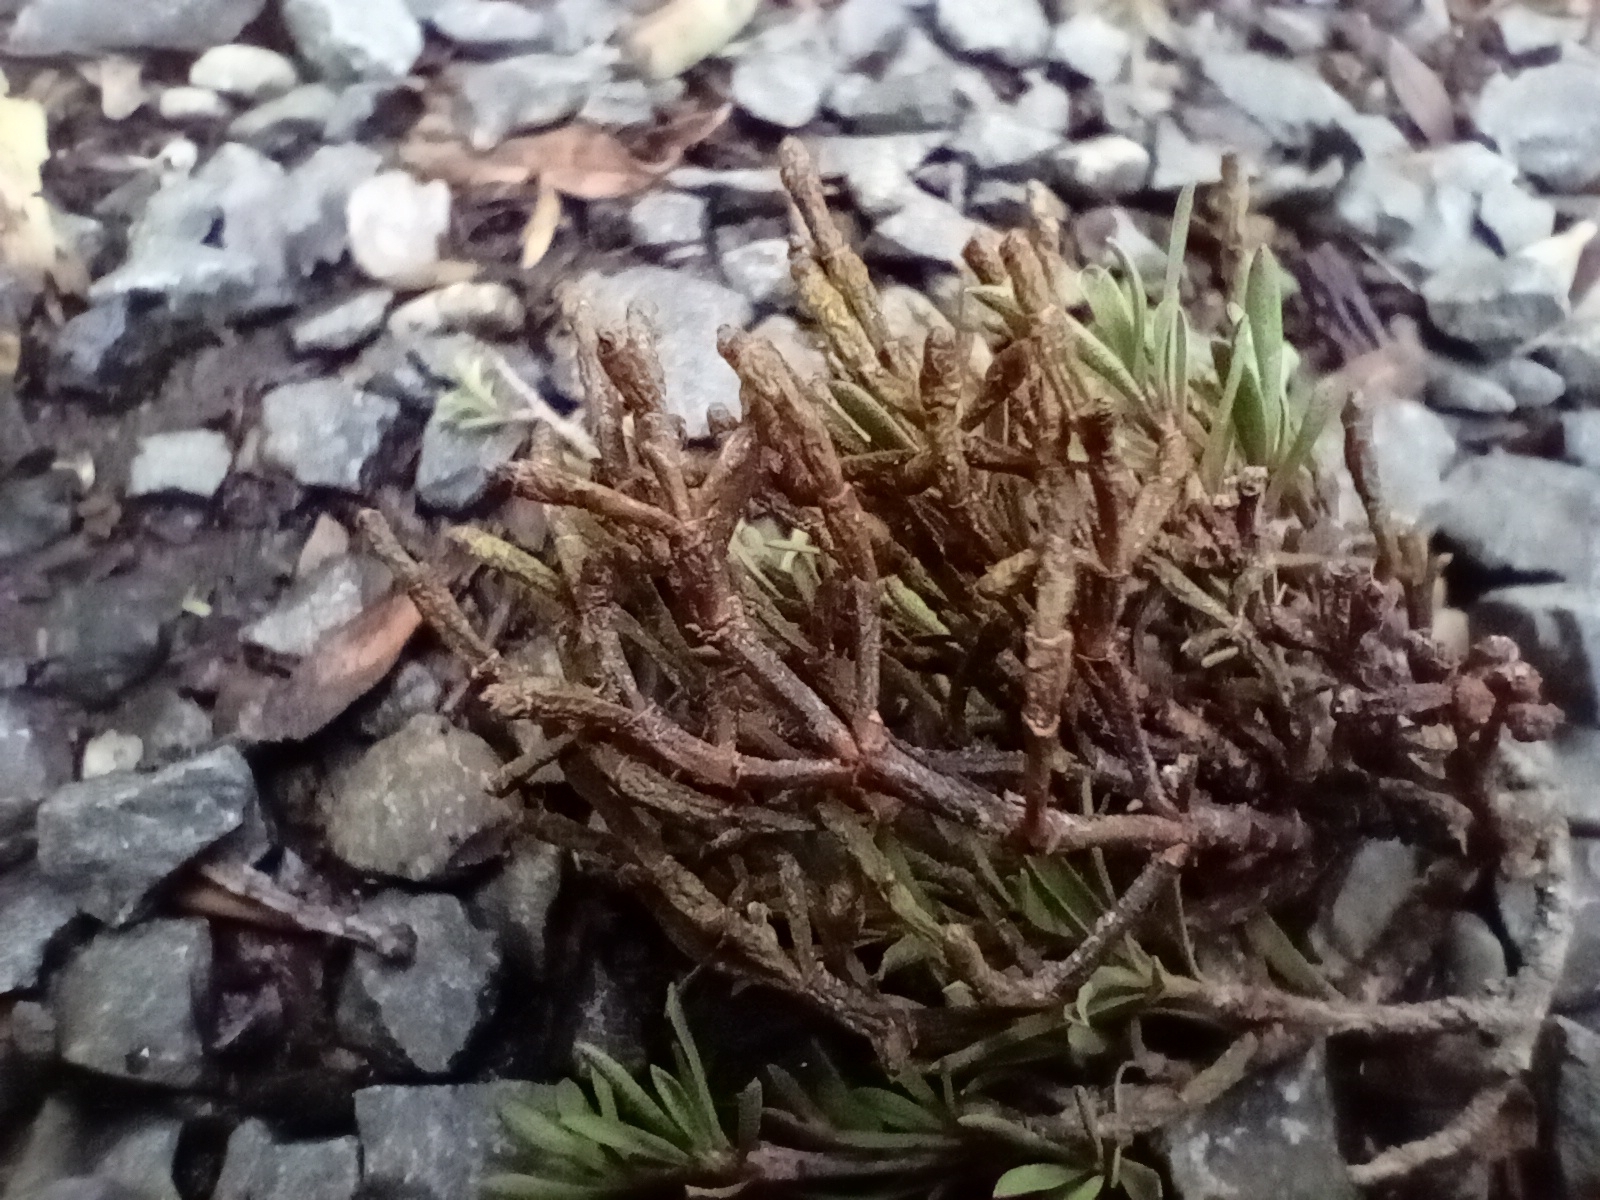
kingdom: Plantae
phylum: Tracheophyta
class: Magnoliopsida
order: Santalales
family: Viscaceae
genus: Korthalsella
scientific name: Korthalsella salicornioides
